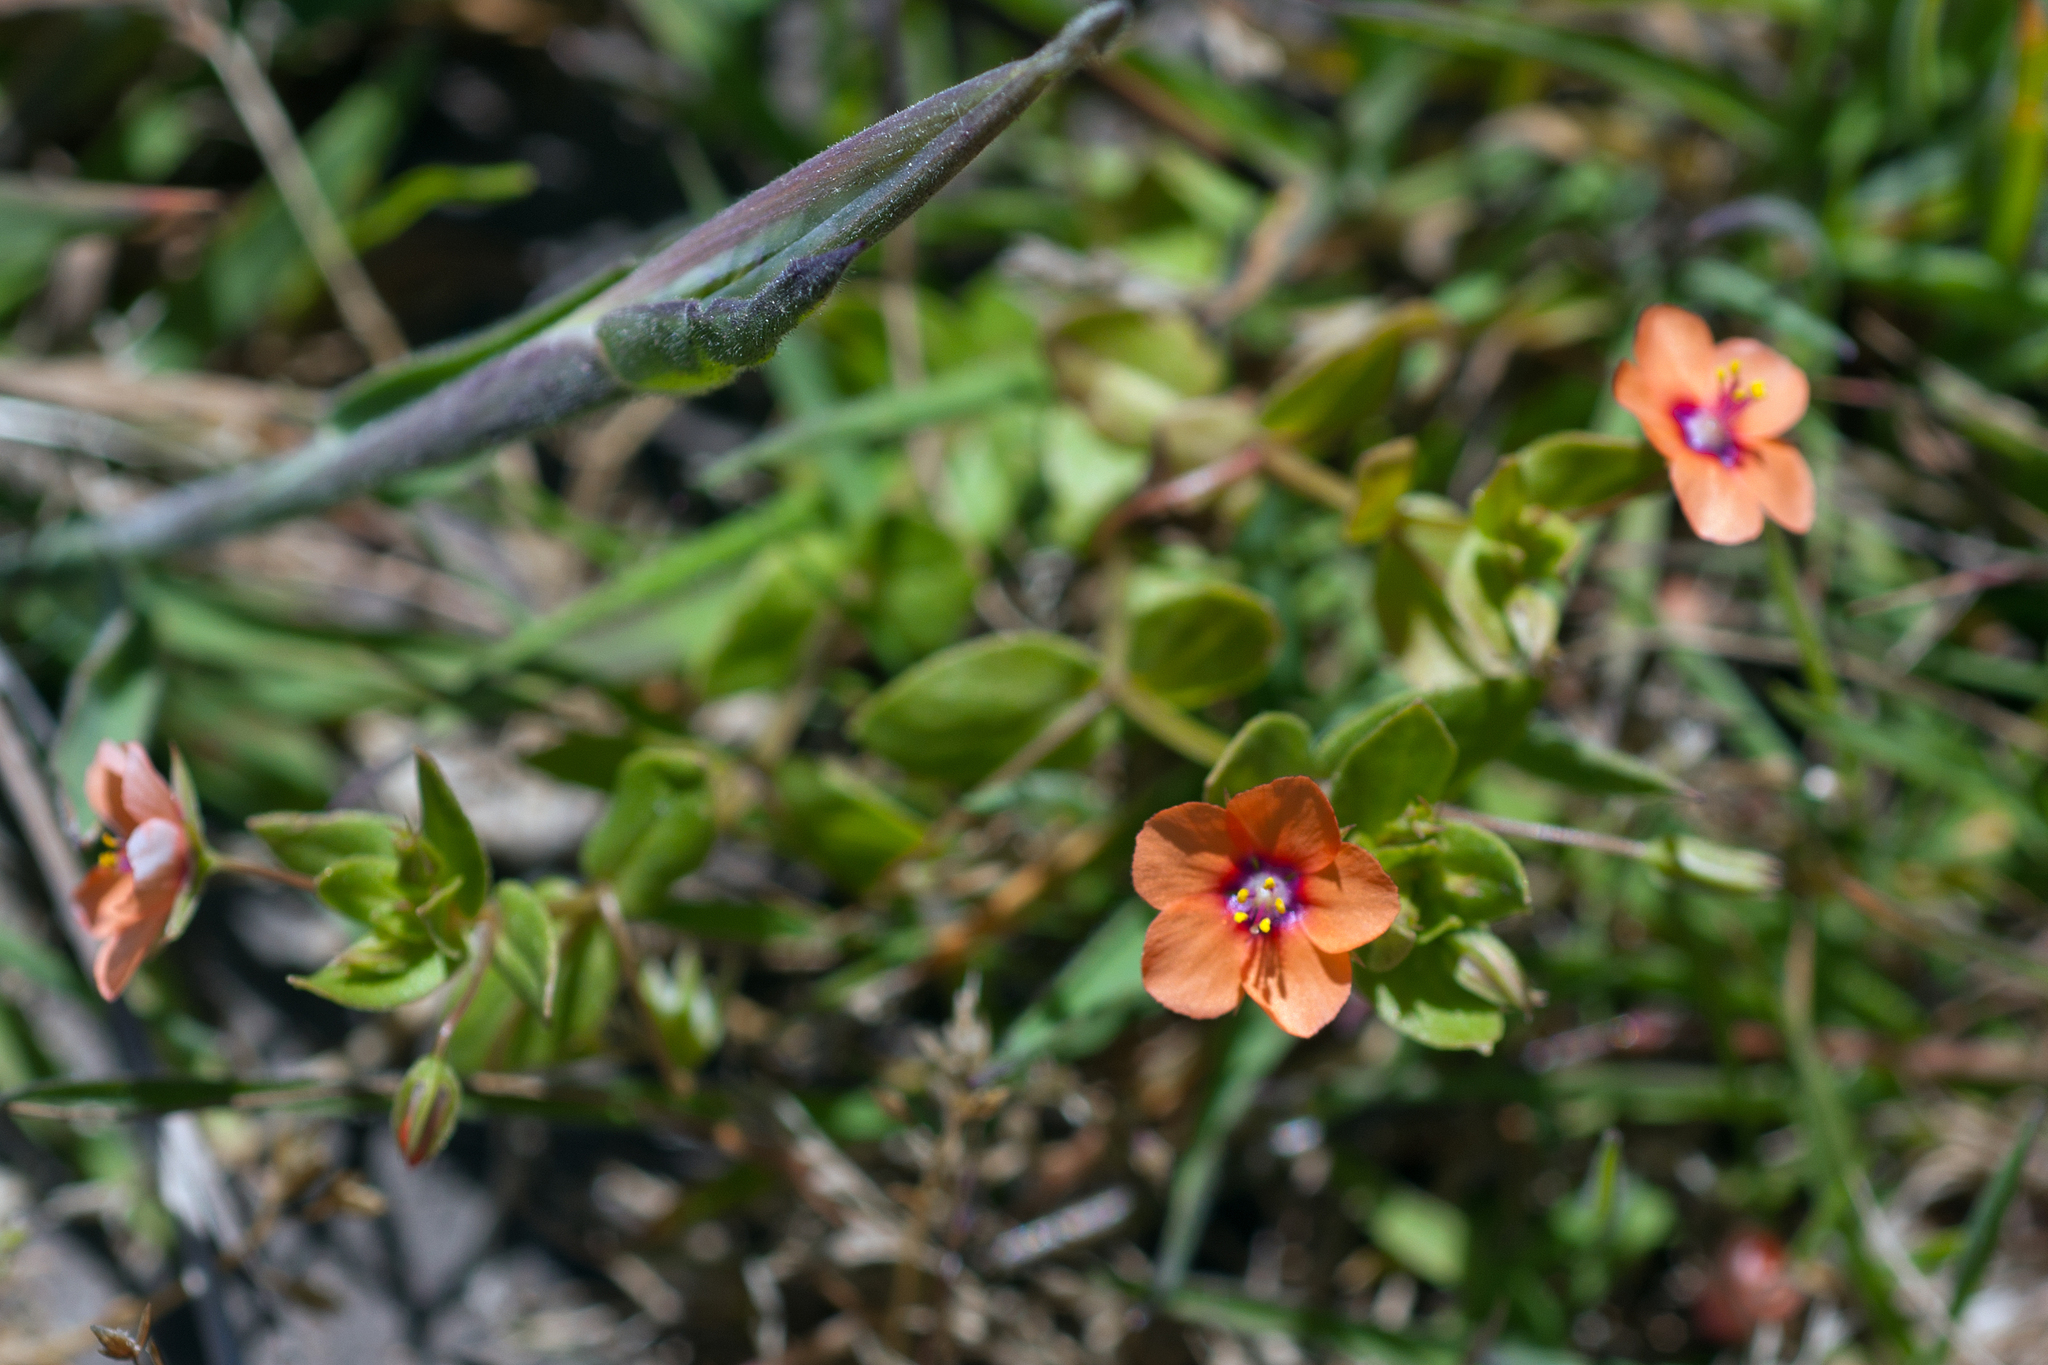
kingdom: Plantae
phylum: Tracheophyta
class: Magnoliopsida
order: Ericales
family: Primulaceae
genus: Lysimachia
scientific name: Lysimachia arvensis
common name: Scarlet pimpernel
